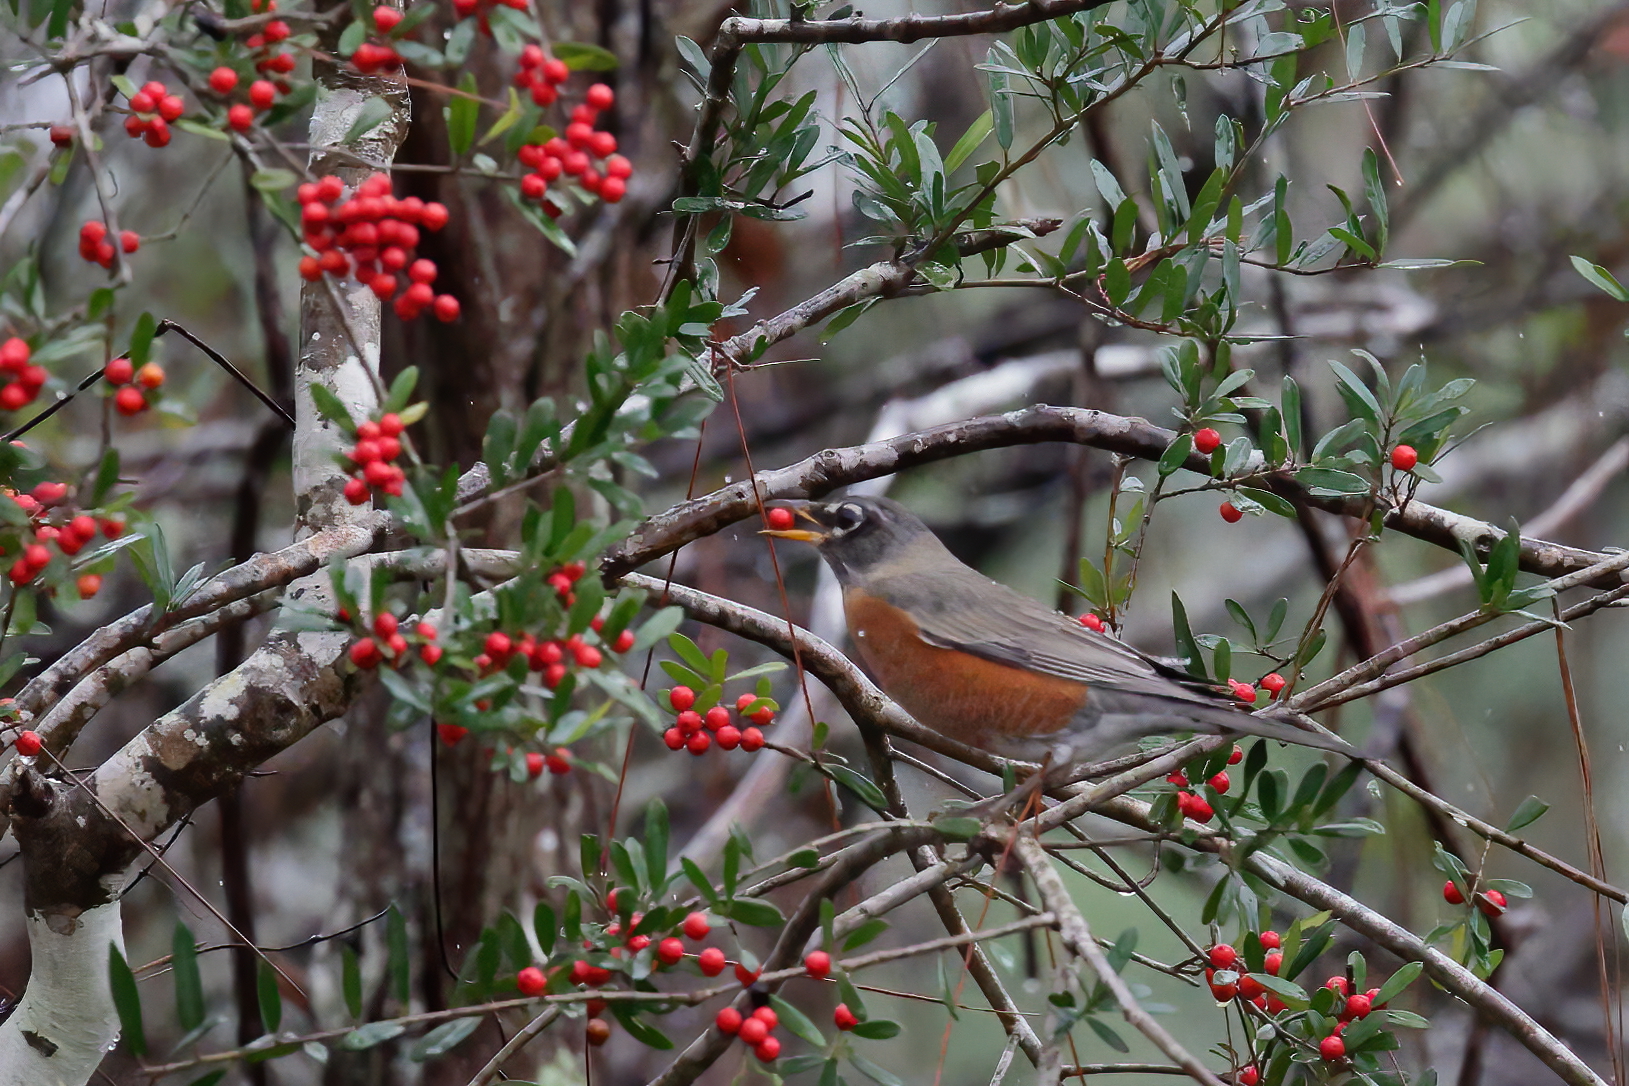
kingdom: Animalia
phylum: Chordata
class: Aves
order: Passeriformes
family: Turdidae
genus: Turdus
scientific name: Turdus migratorius
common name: American robin
